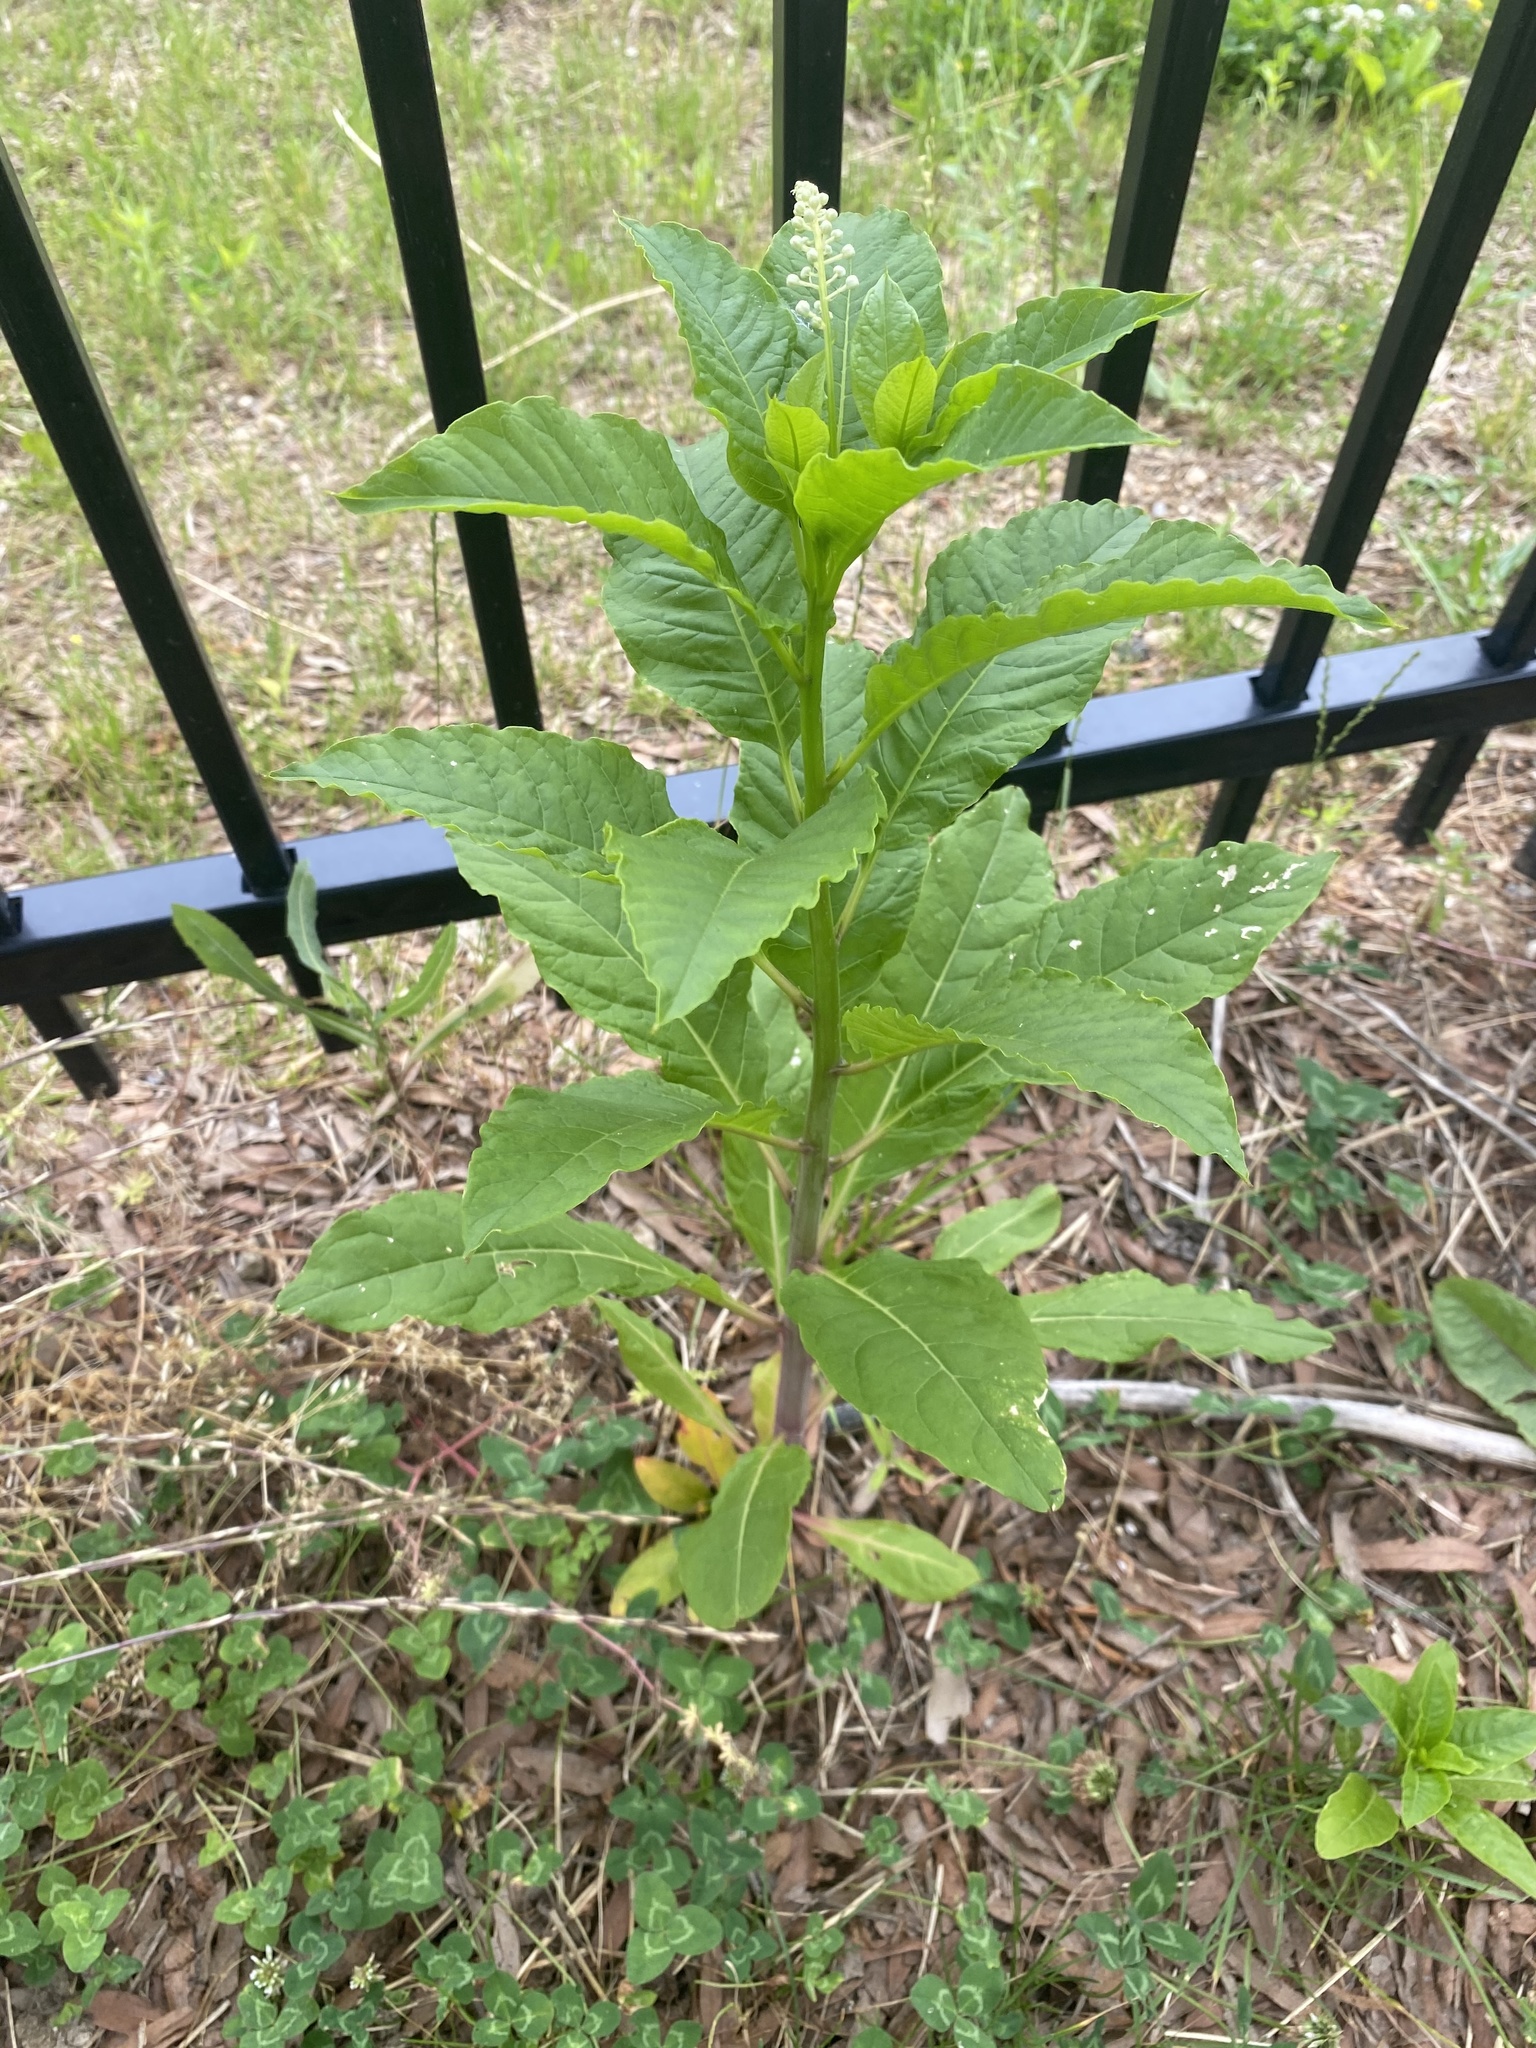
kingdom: Plantae
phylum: Tracheophyta
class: Magnoliopsida
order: Caryophyllales
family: Phytolaccaceae
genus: Phytolacca
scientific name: Phytolacca americana
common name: American pokeweed
